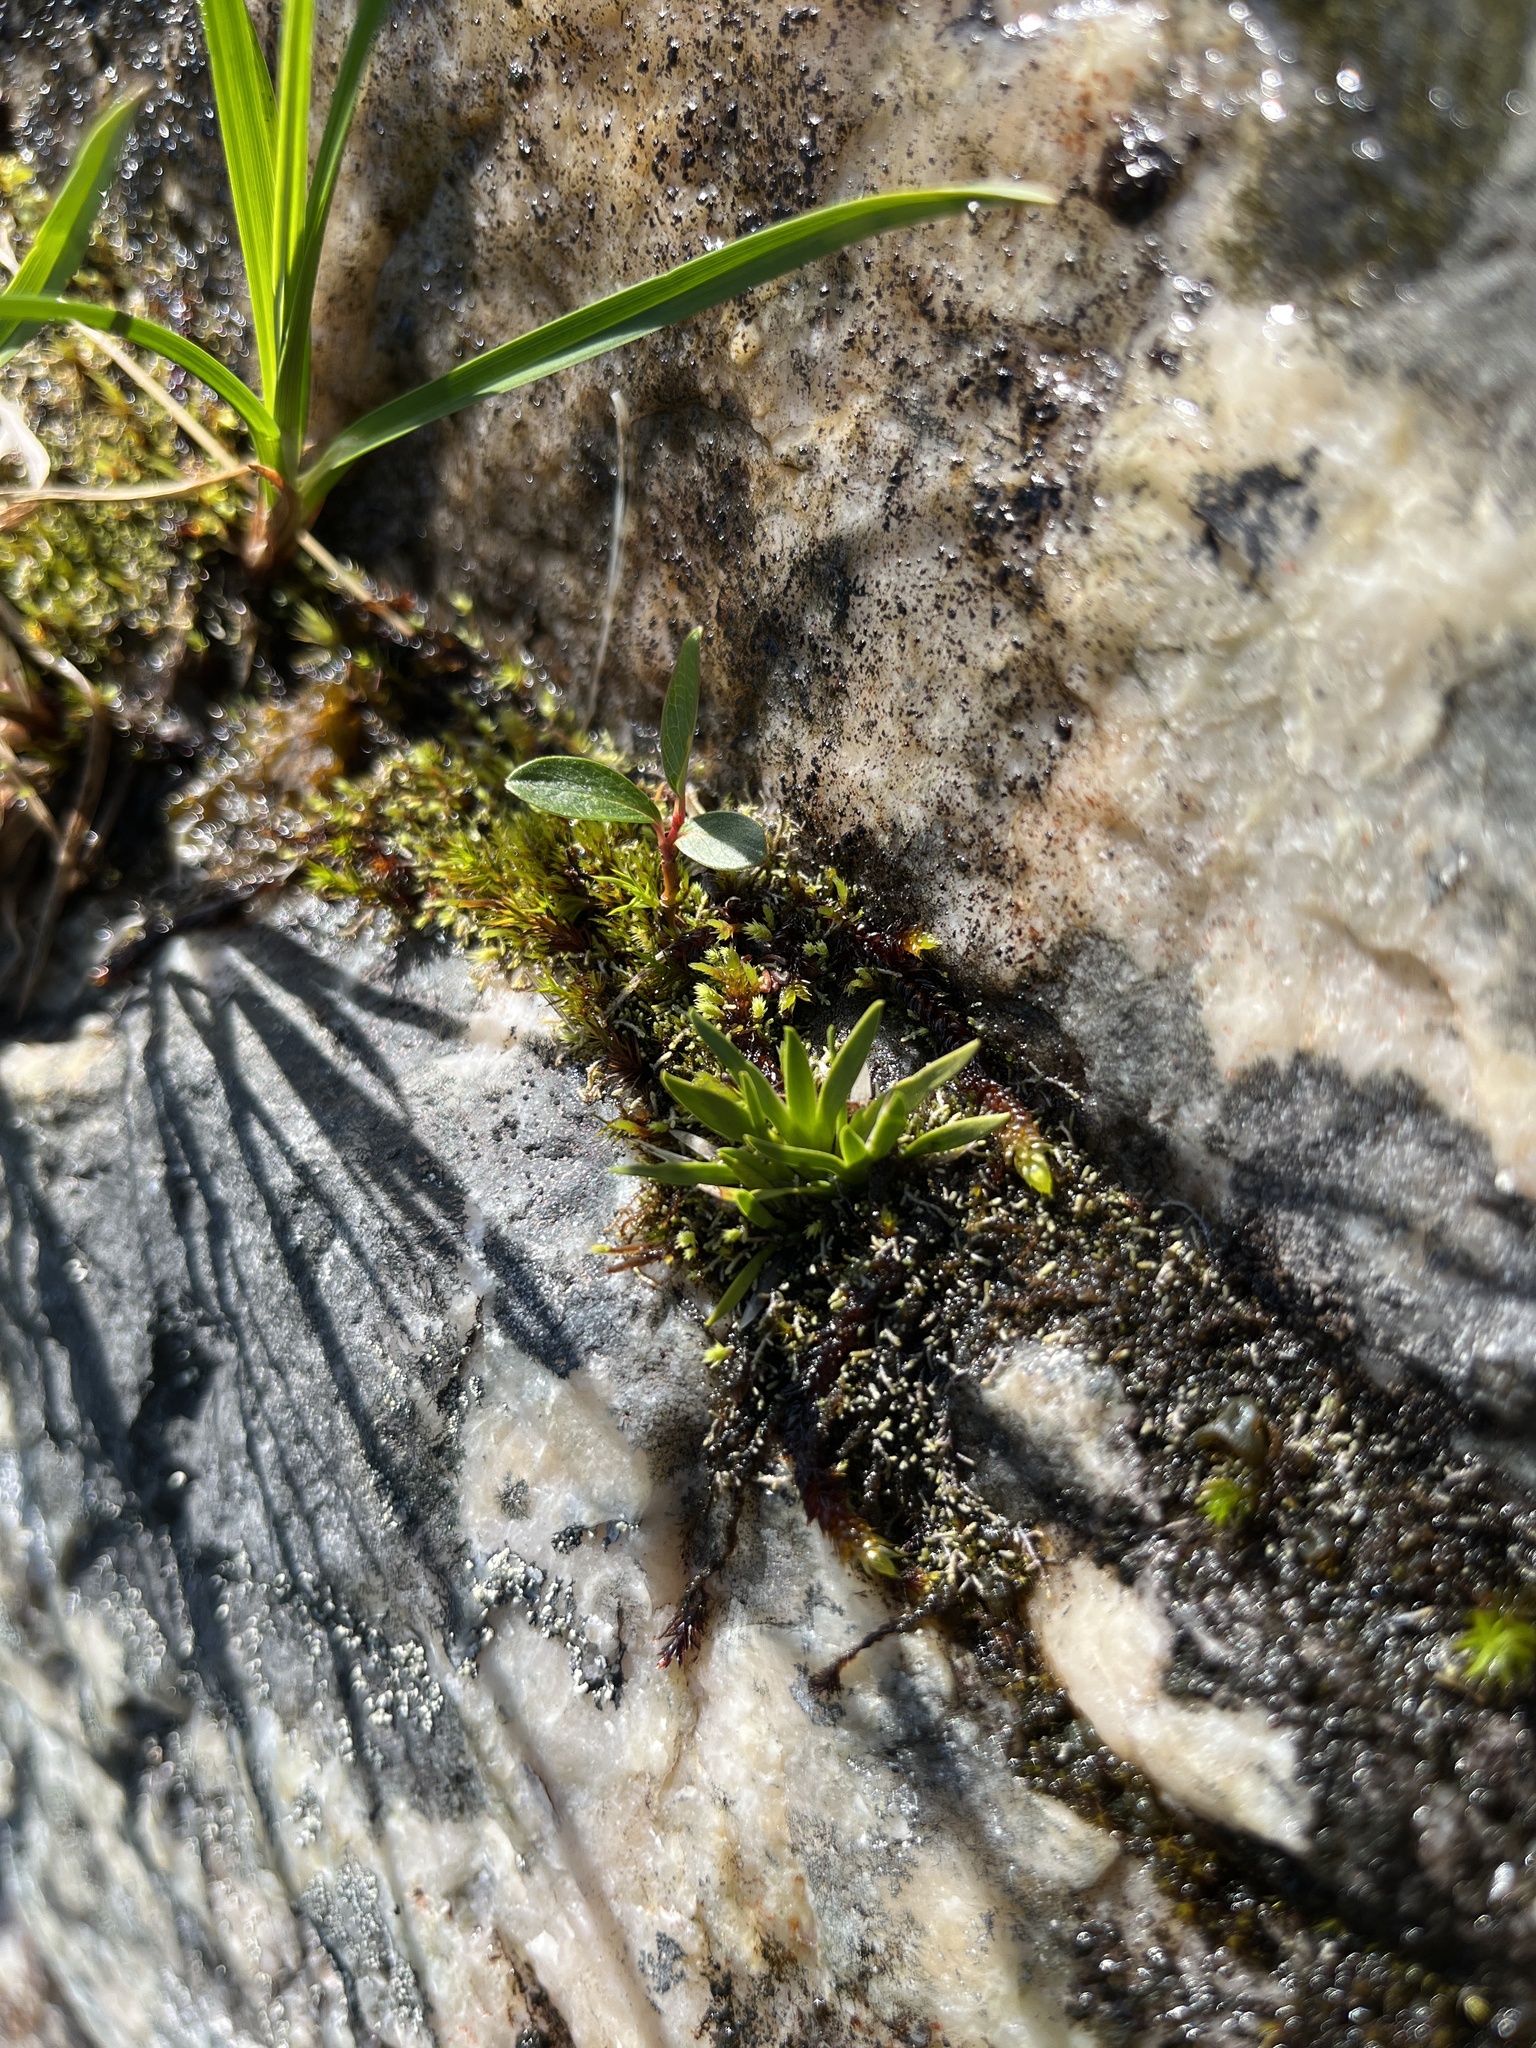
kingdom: Plantae
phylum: Tracheophyta
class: Liliopsida
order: Alismatales
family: Tofieldiaceae
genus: Tofieldia
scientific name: Tofieldia pusilla
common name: Scottish false asphodel
